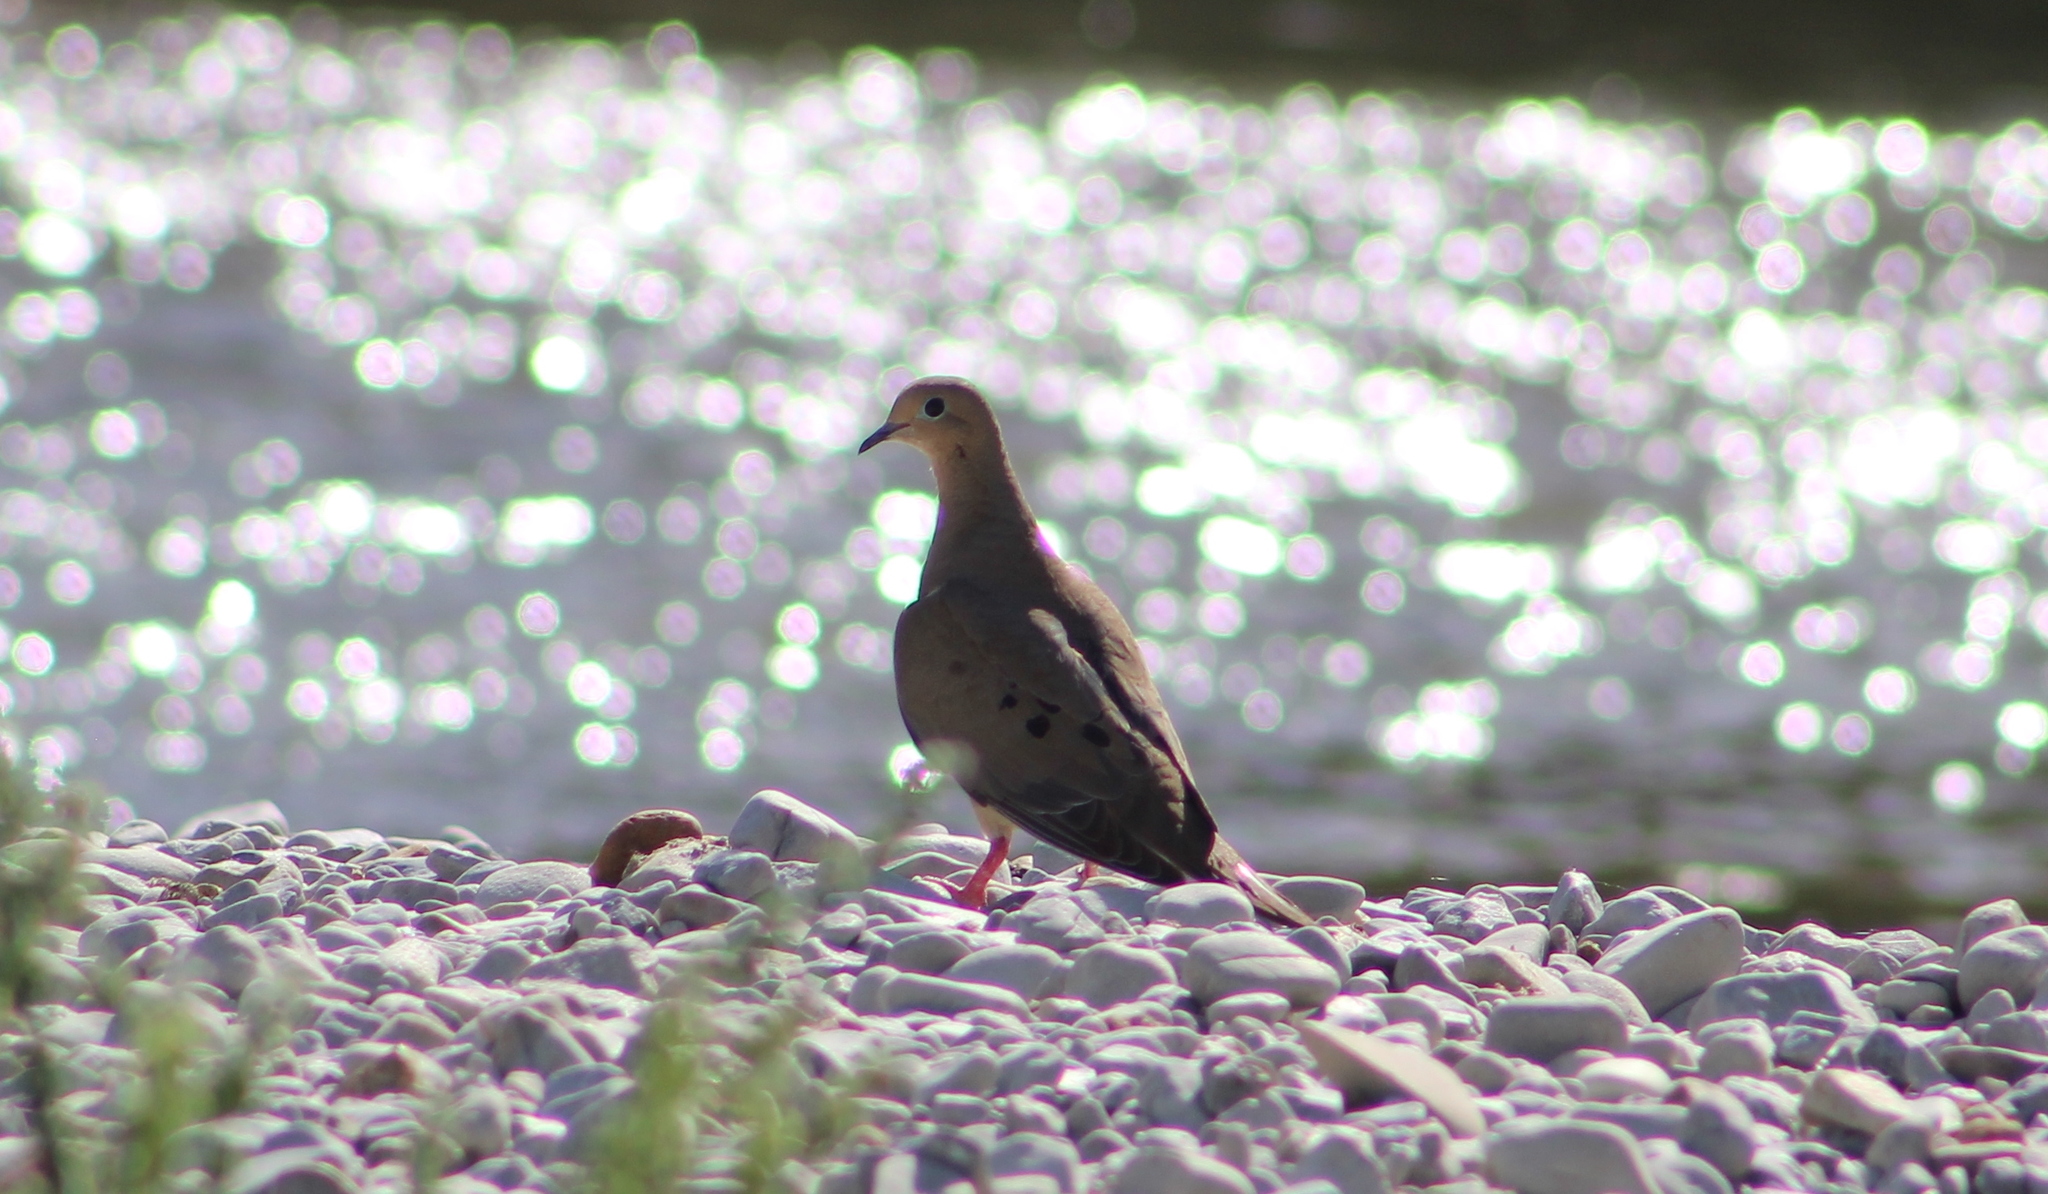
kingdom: Animalia
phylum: Chordata
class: Aves
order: Columbiformes
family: Columbidae
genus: Zenaida
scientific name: Zenaida macroura
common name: Mourning dove
